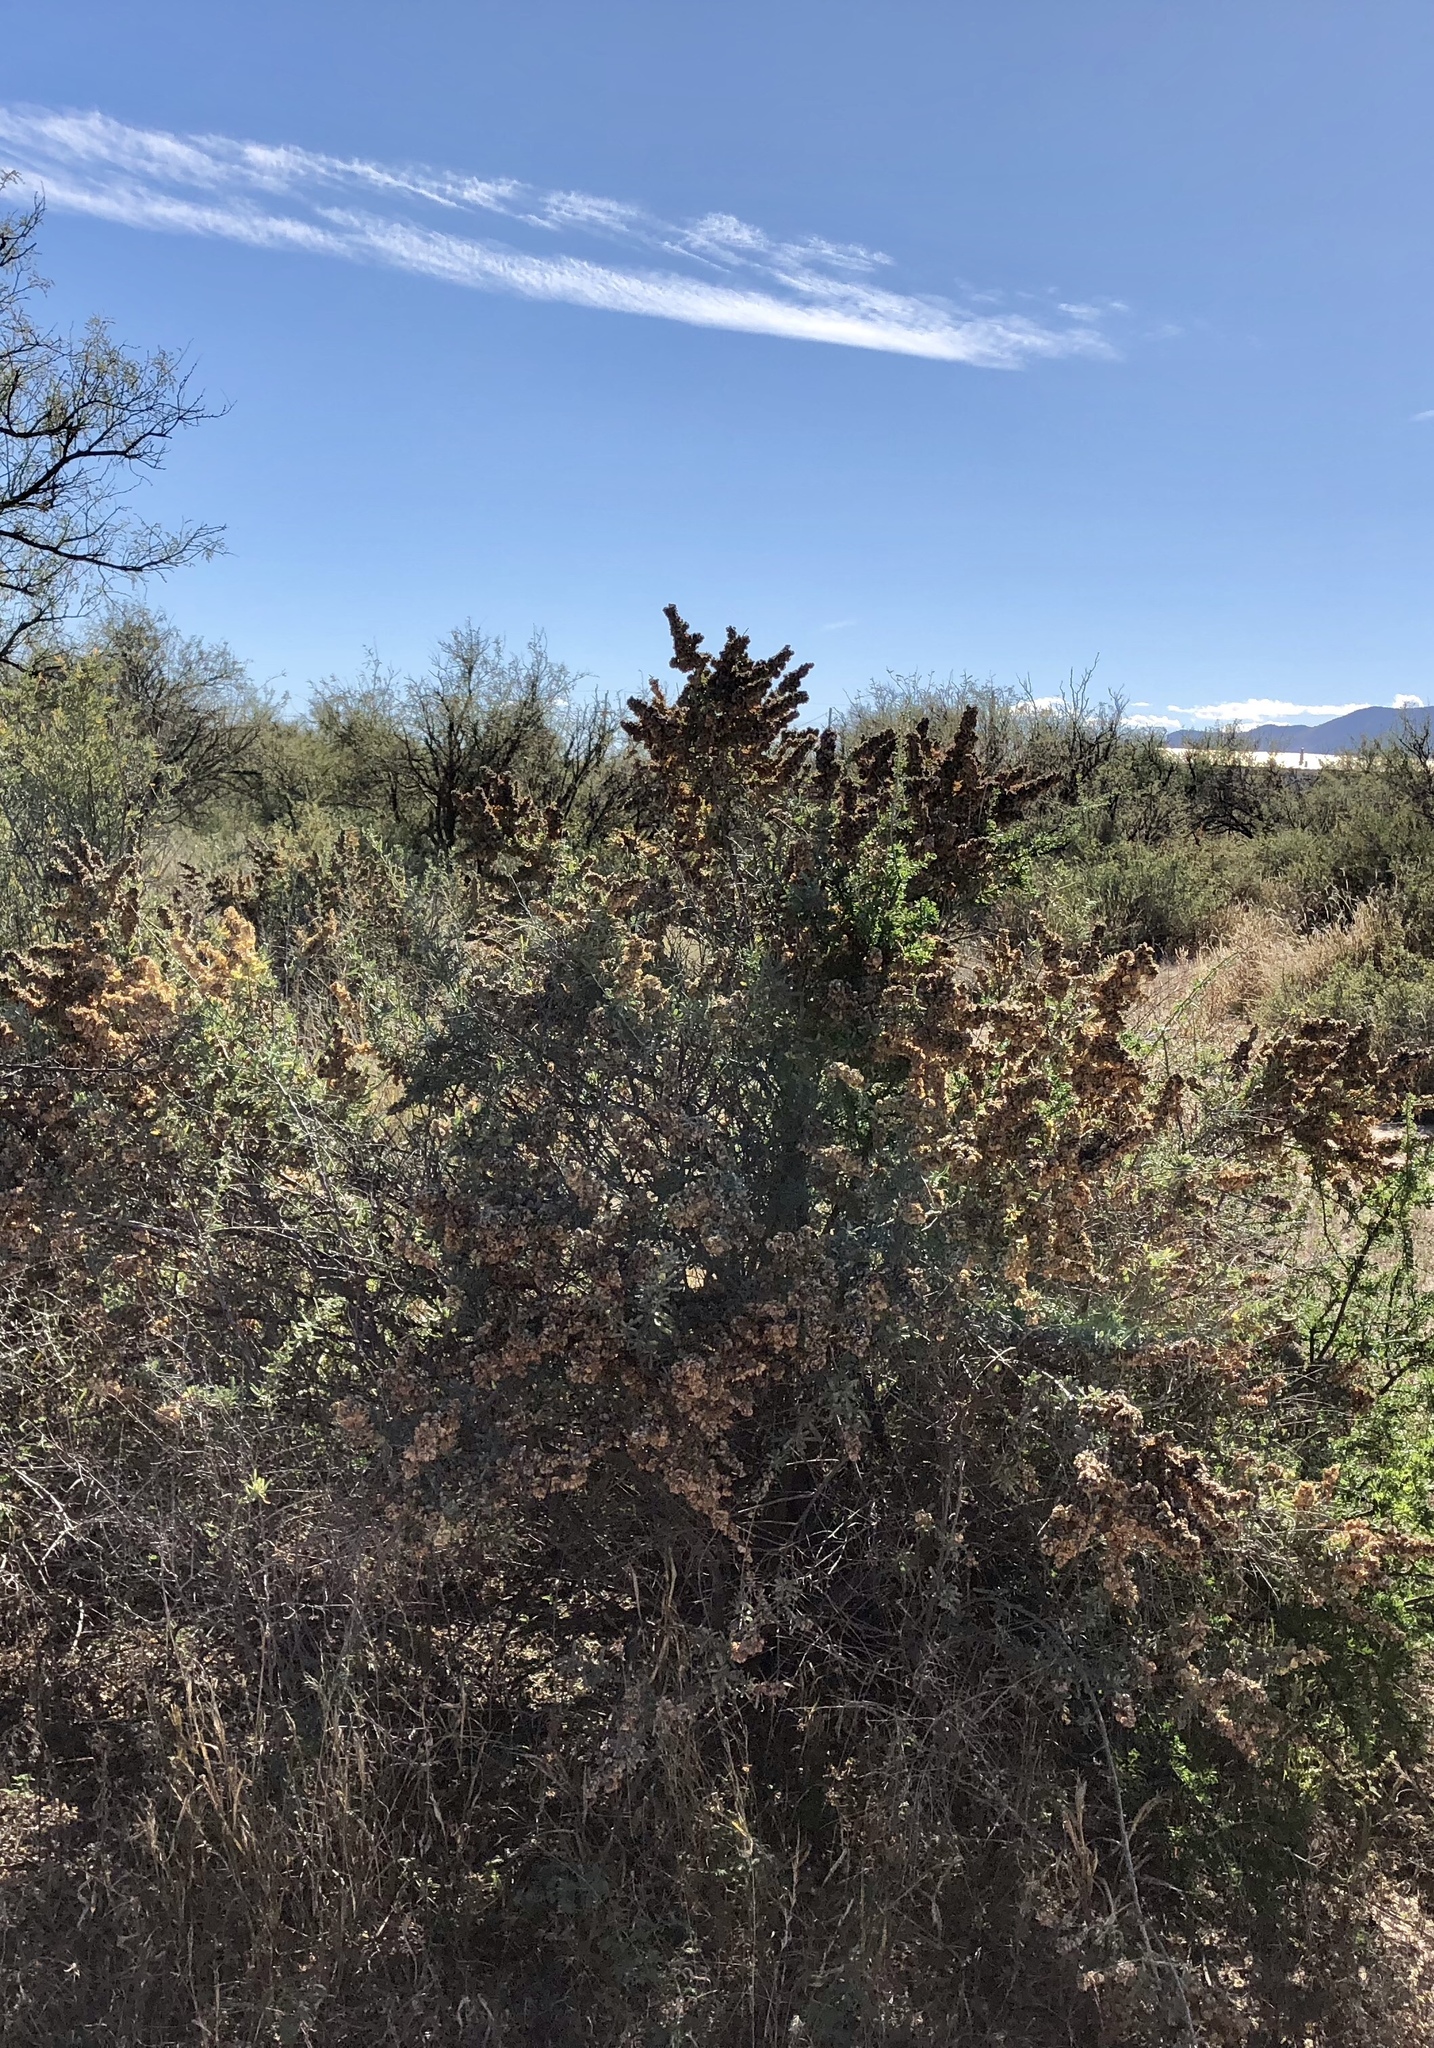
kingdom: Plantae
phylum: Tracheophyta
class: Magnoliopsida
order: Caryophyllales
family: Amaranthaceae
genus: Atriplex
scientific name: Atriplex canescens
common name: Four-wing saltbush
